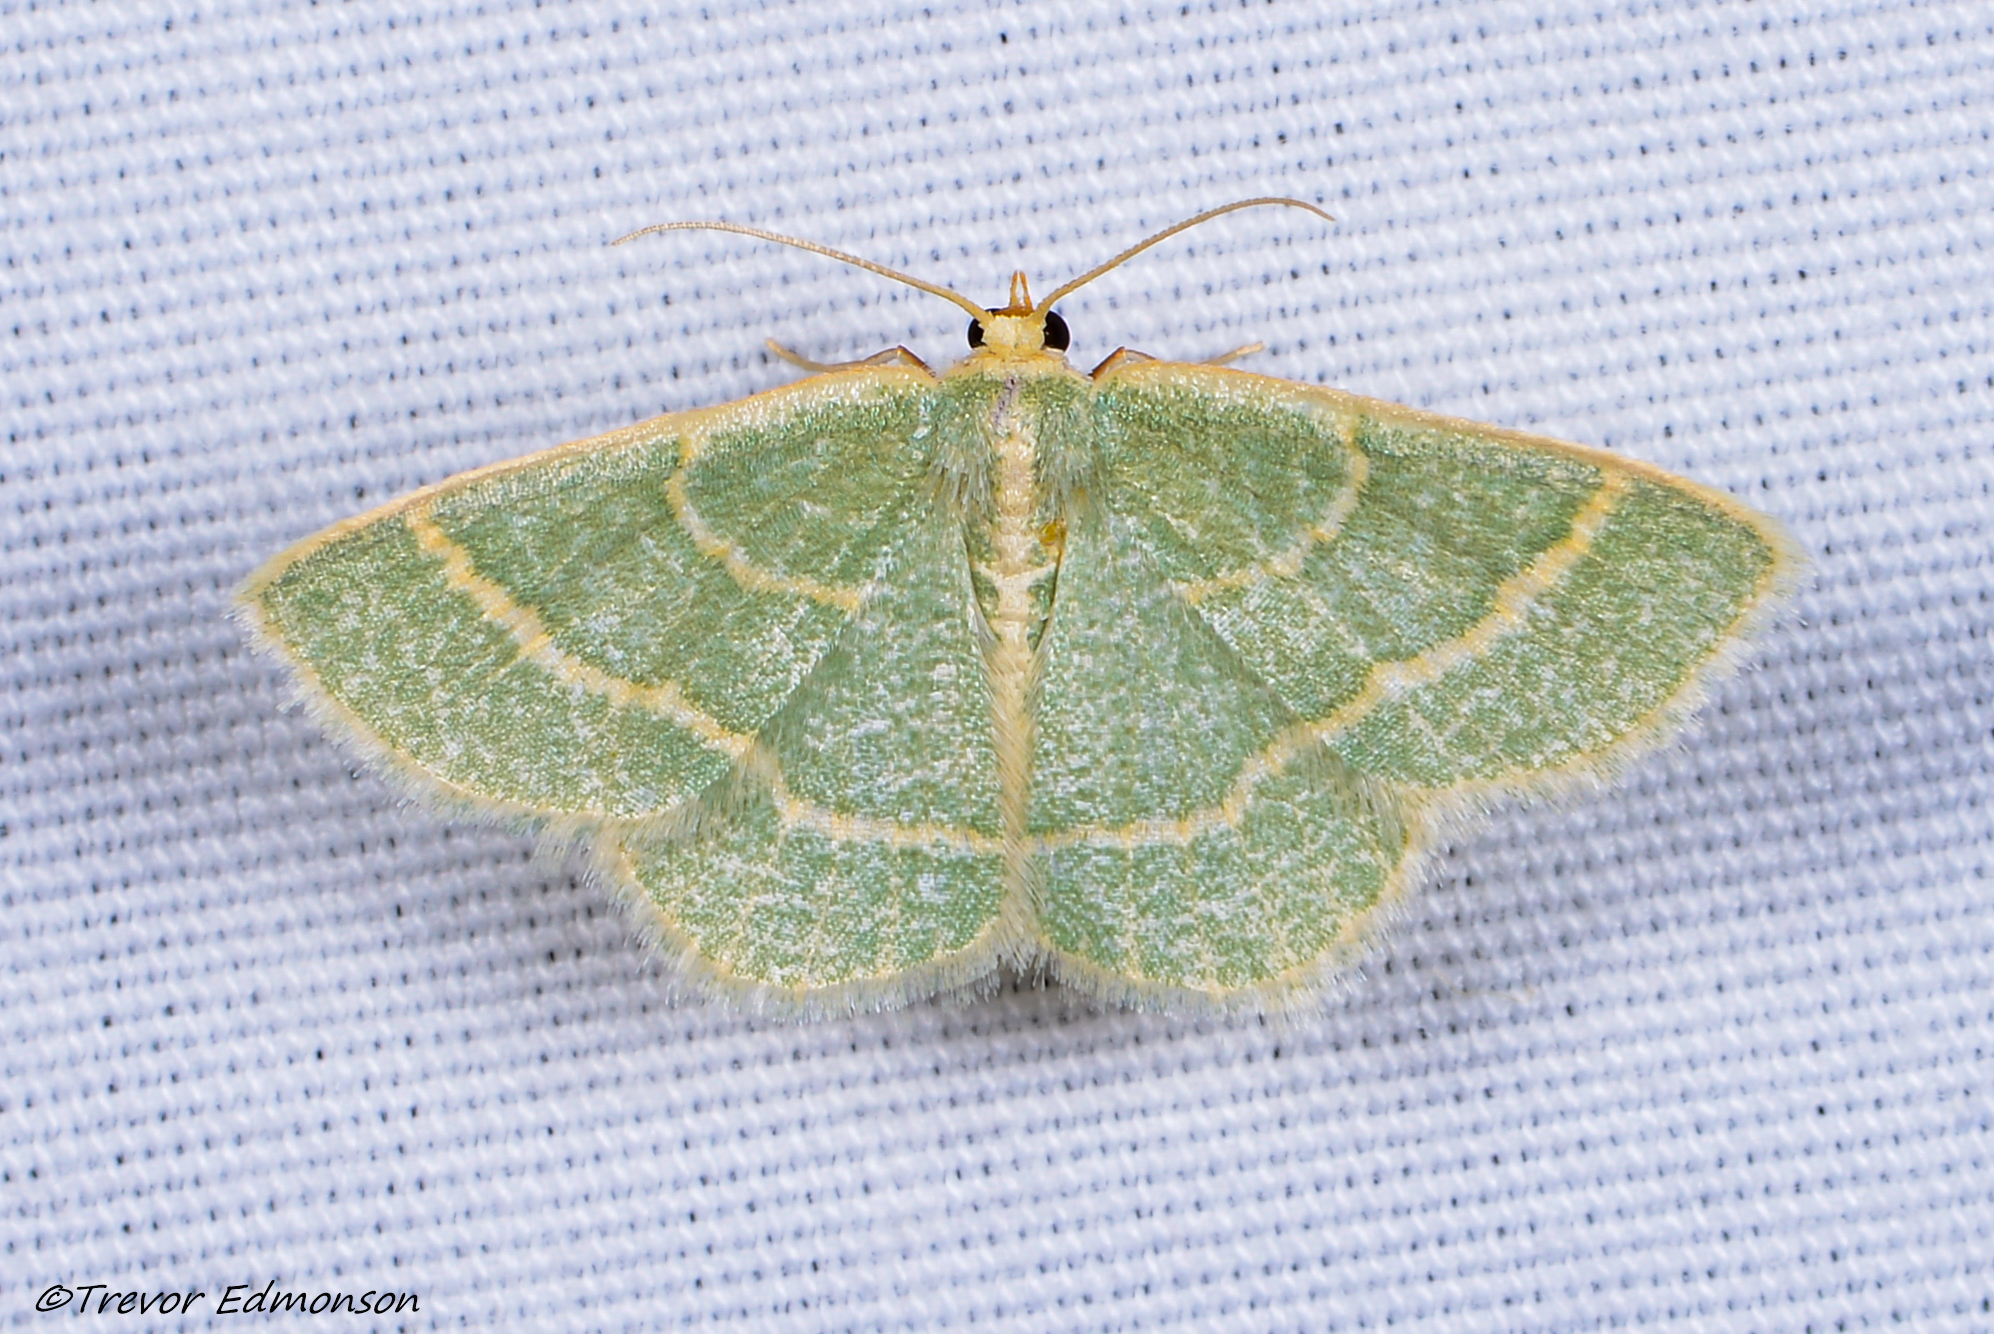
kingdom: Animalia
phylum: Arthropoda
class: Insecta
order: Lepidoptera
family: Geometridae
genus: Chlorochlamys
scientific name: Chlorochlamys chloroleucaria
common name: Blackberry looper
